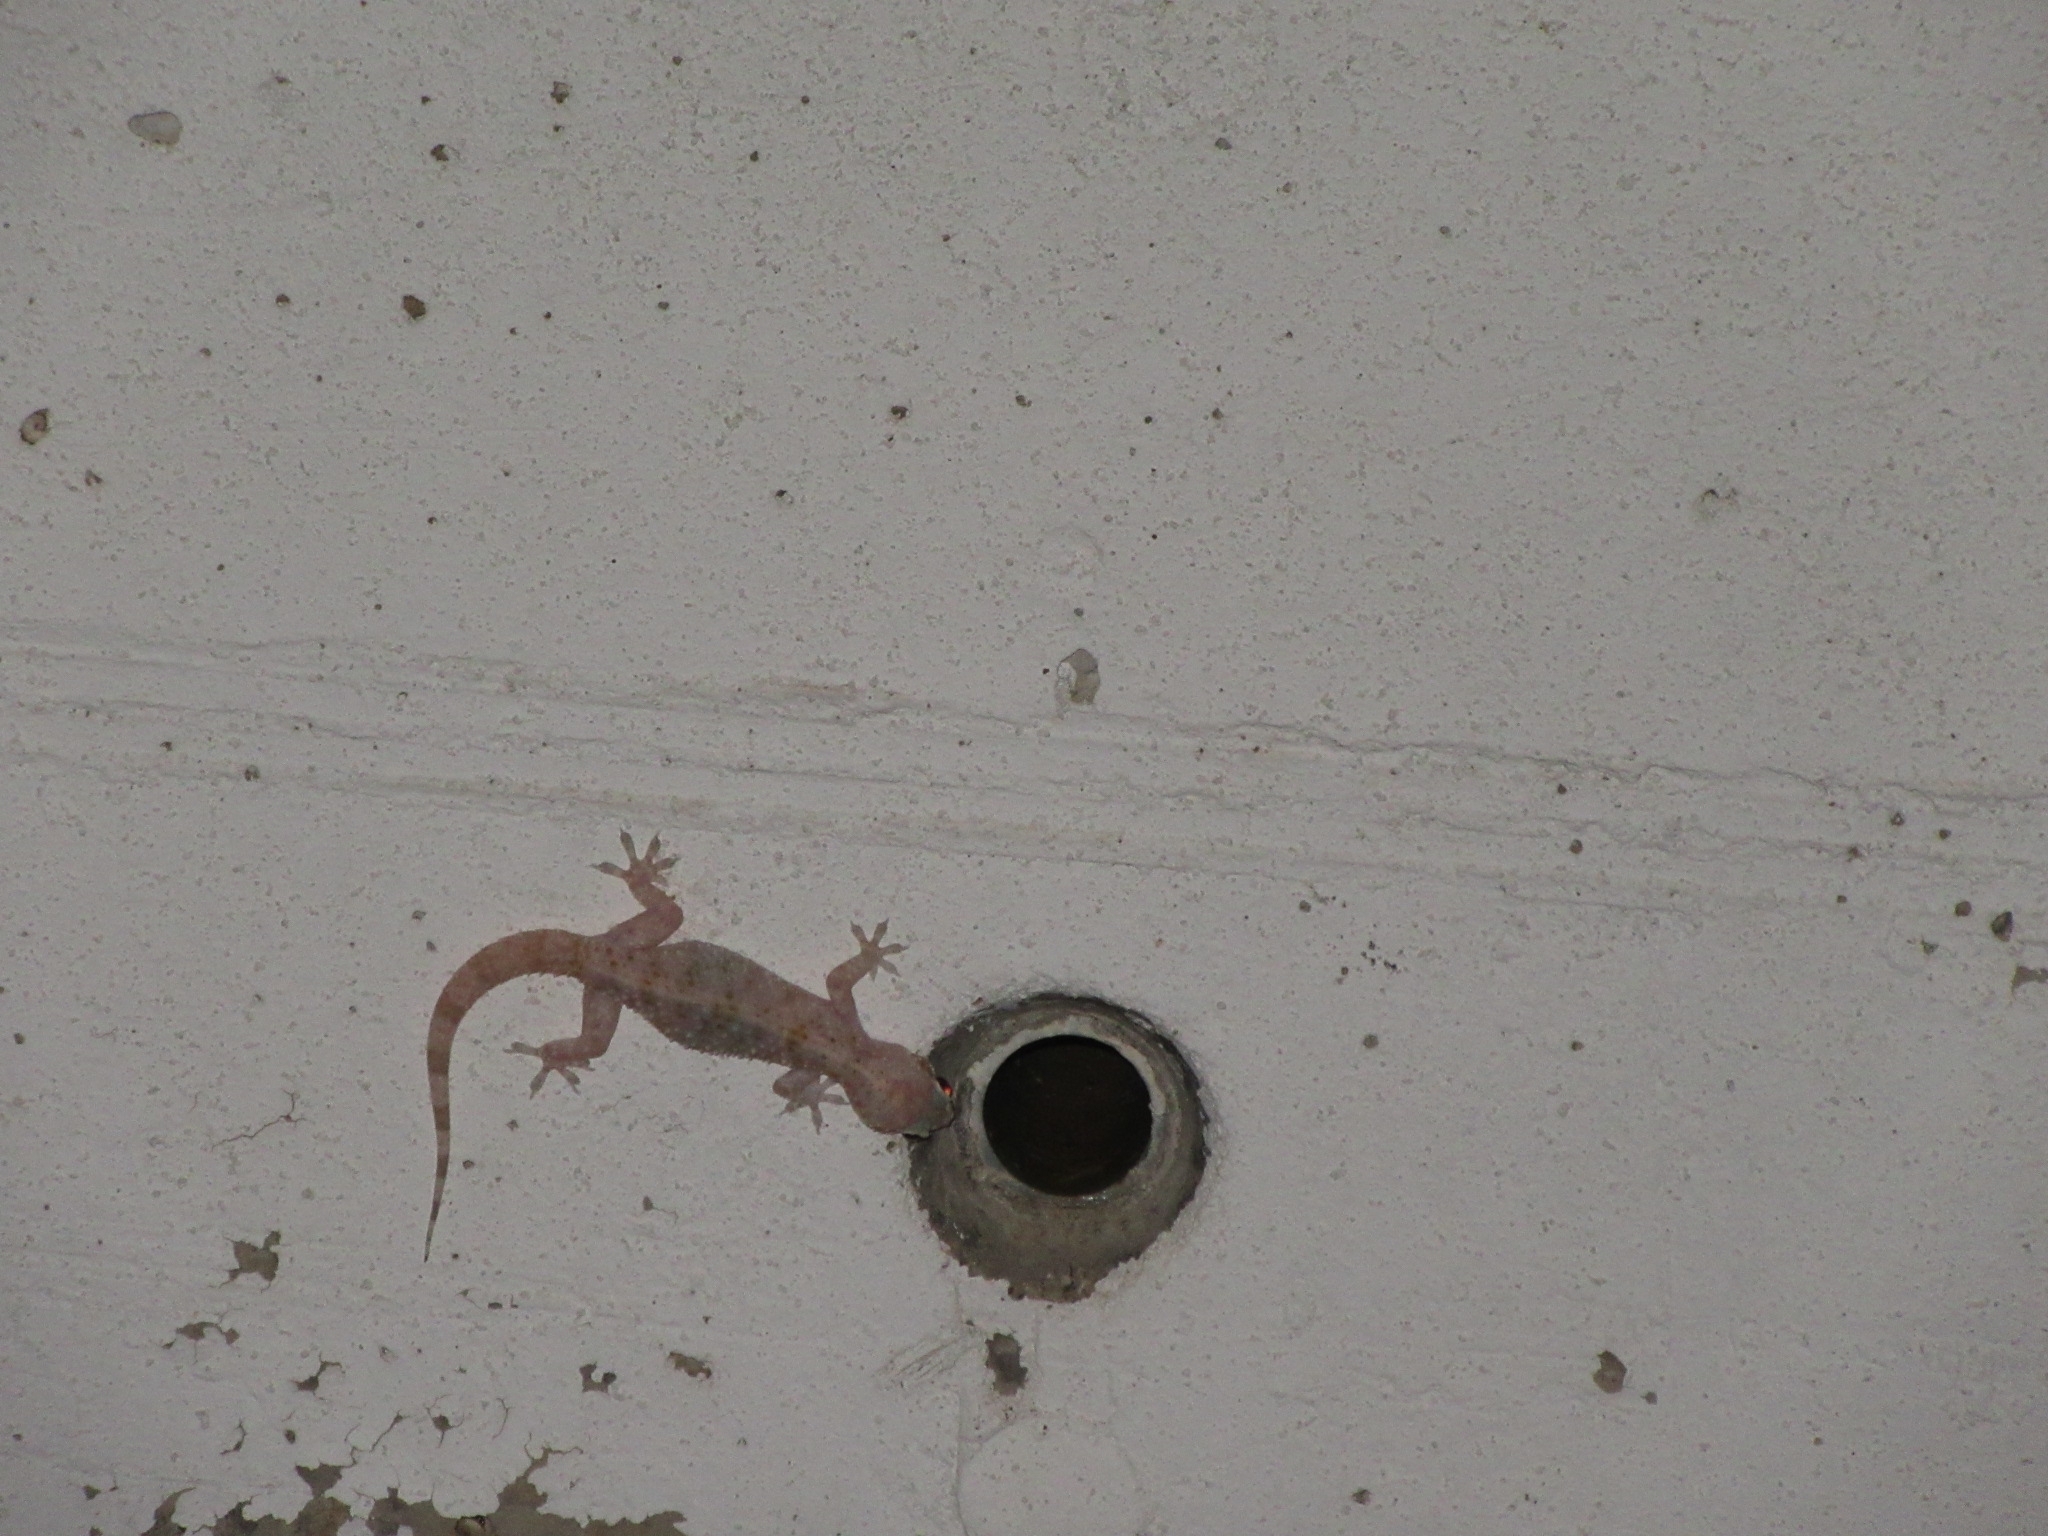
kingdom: Animalia
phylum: Chordata
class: Squamata
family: Gekkonidae
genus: Hemidactylus
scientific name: Hemidactylus turcicus
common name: Turkish gecko
